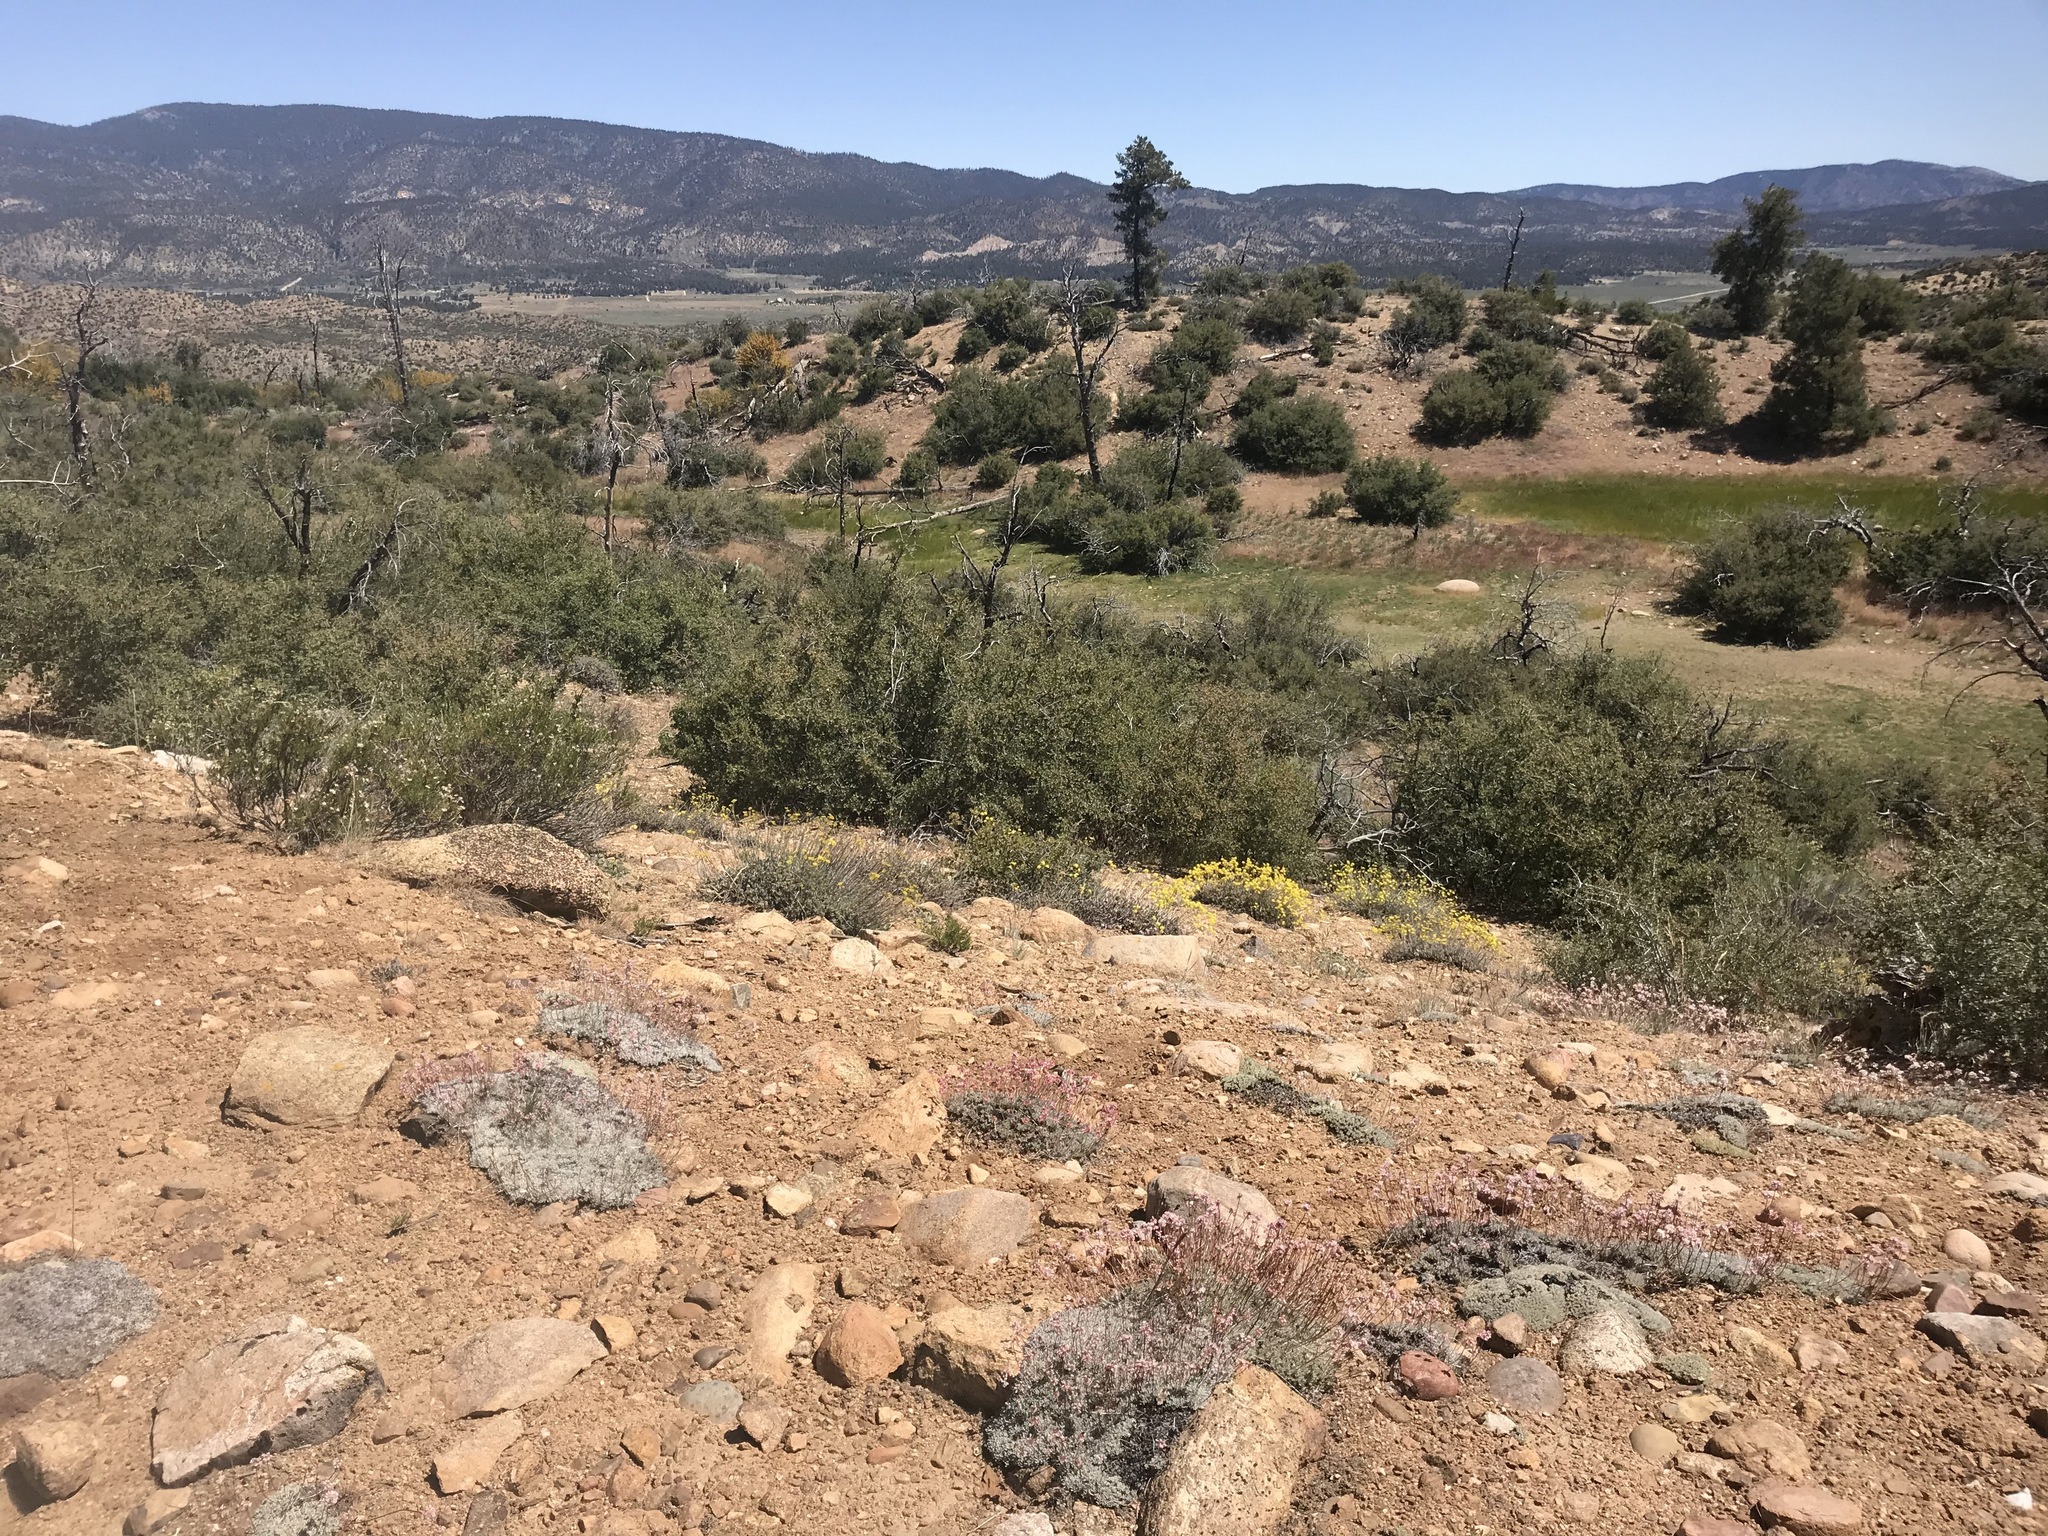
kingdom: Plantae
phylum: Tracheophyta
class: Magnoliopsida
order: Caryophyllales
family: Polygonaceae
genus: Eriogonum
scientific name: Eriogonum kennedyi
